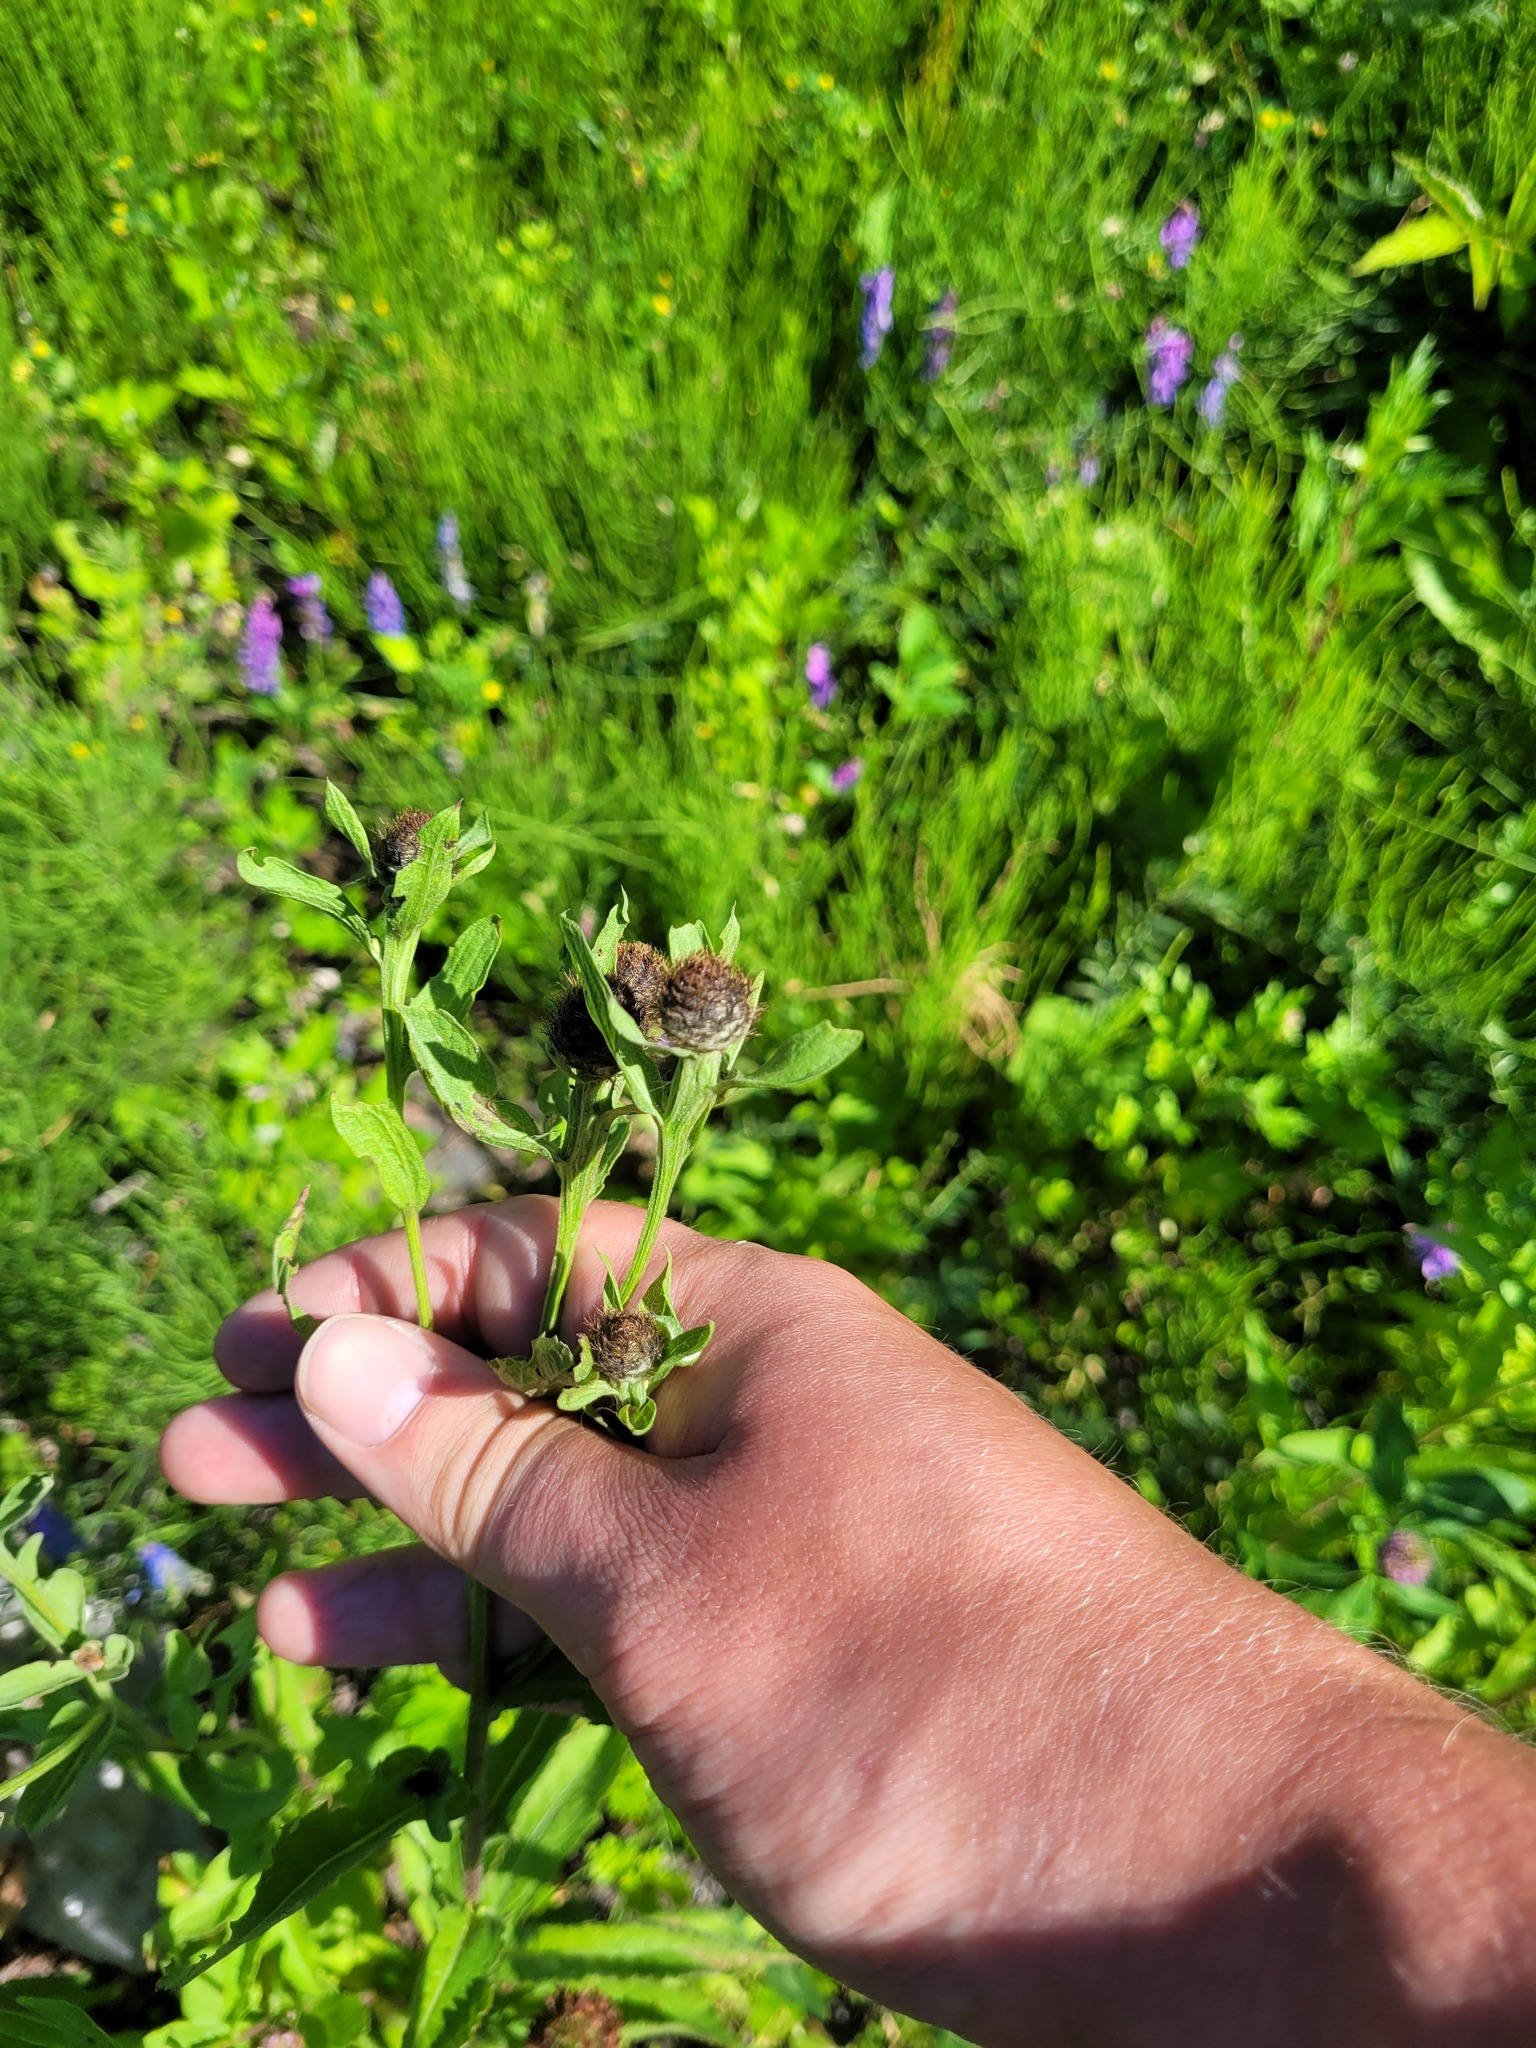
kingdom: Plantae
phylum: Tracheophyta
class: Magnoliopsida
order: Asterales
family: Asteraceae
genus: Centaurea
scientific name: Centaurea phrygia
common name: Wig knapweed
